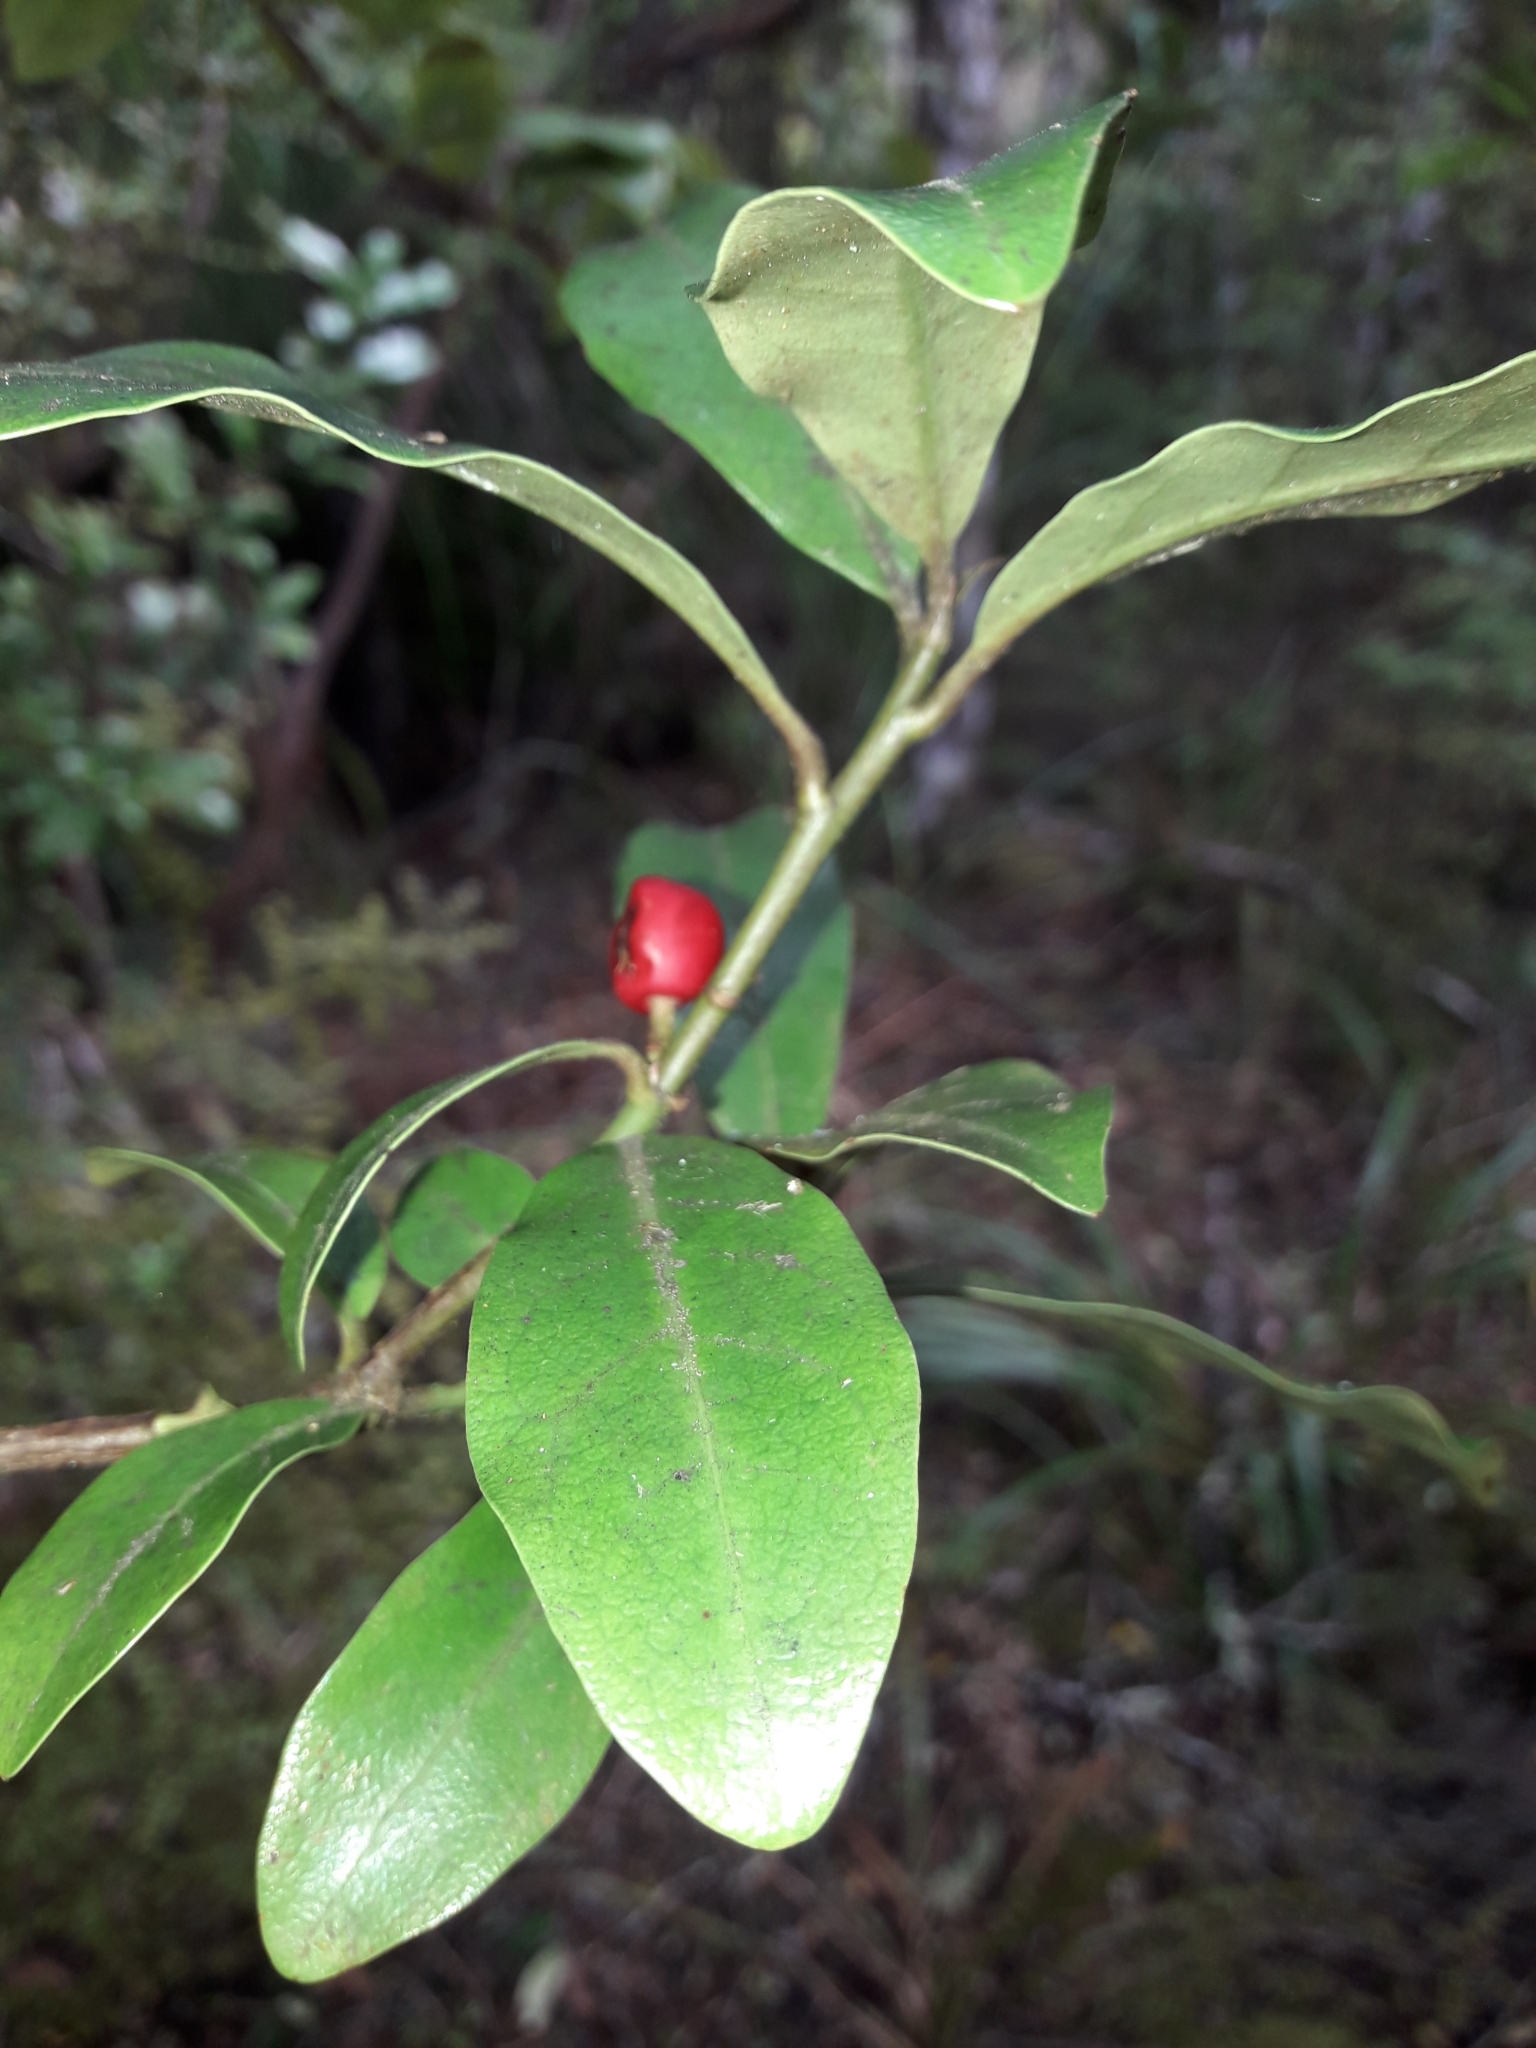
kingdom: Plantae
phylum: Tracheophyta
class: Magnoliopsida
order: Asterales
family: Alseuosmiaceae
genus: Alseuosmia
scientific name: Alseuosmia macrophylla
